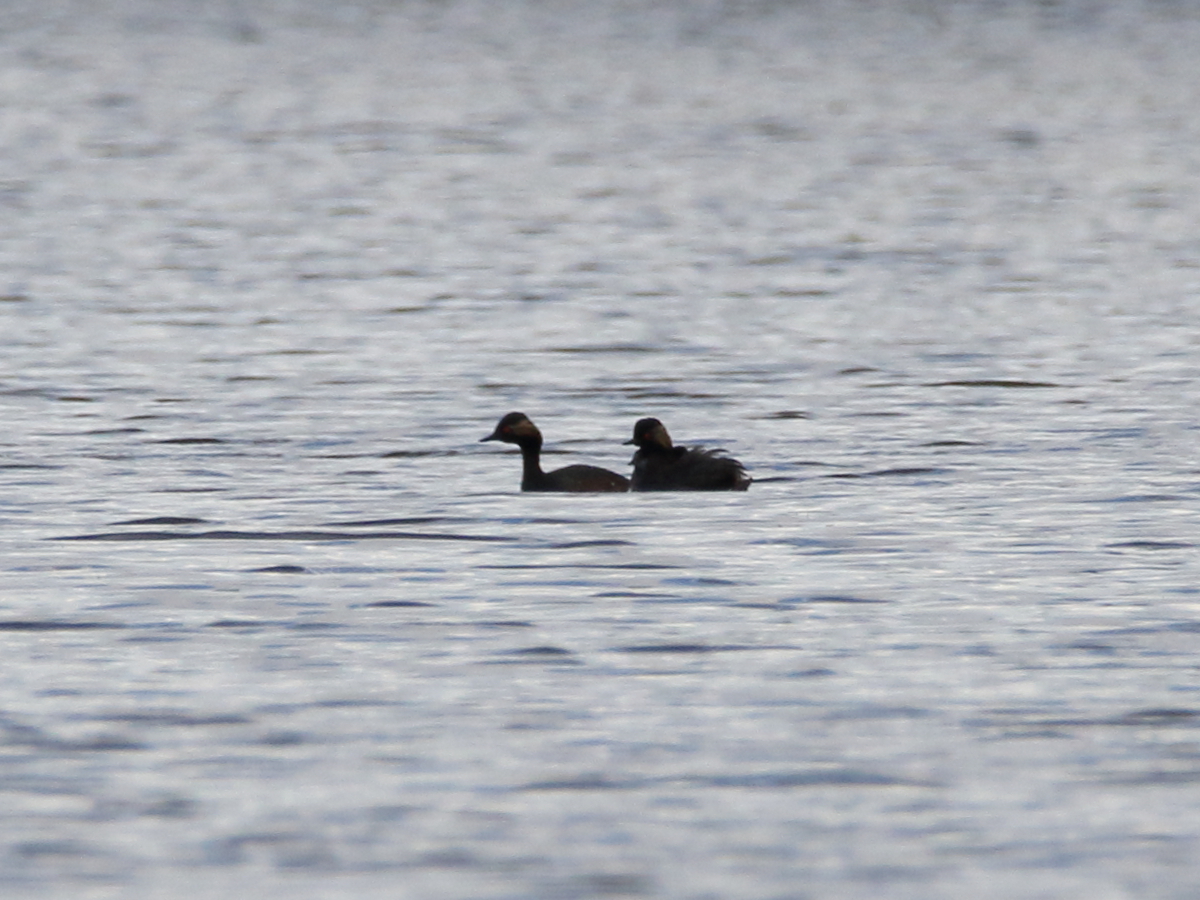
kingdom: Animalia
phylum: Chordata
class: Aves
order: Podicipediformes
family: Podicipedidae
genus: Podiceps
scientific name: Podiceps nigricollis
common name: Black-necked grebe
